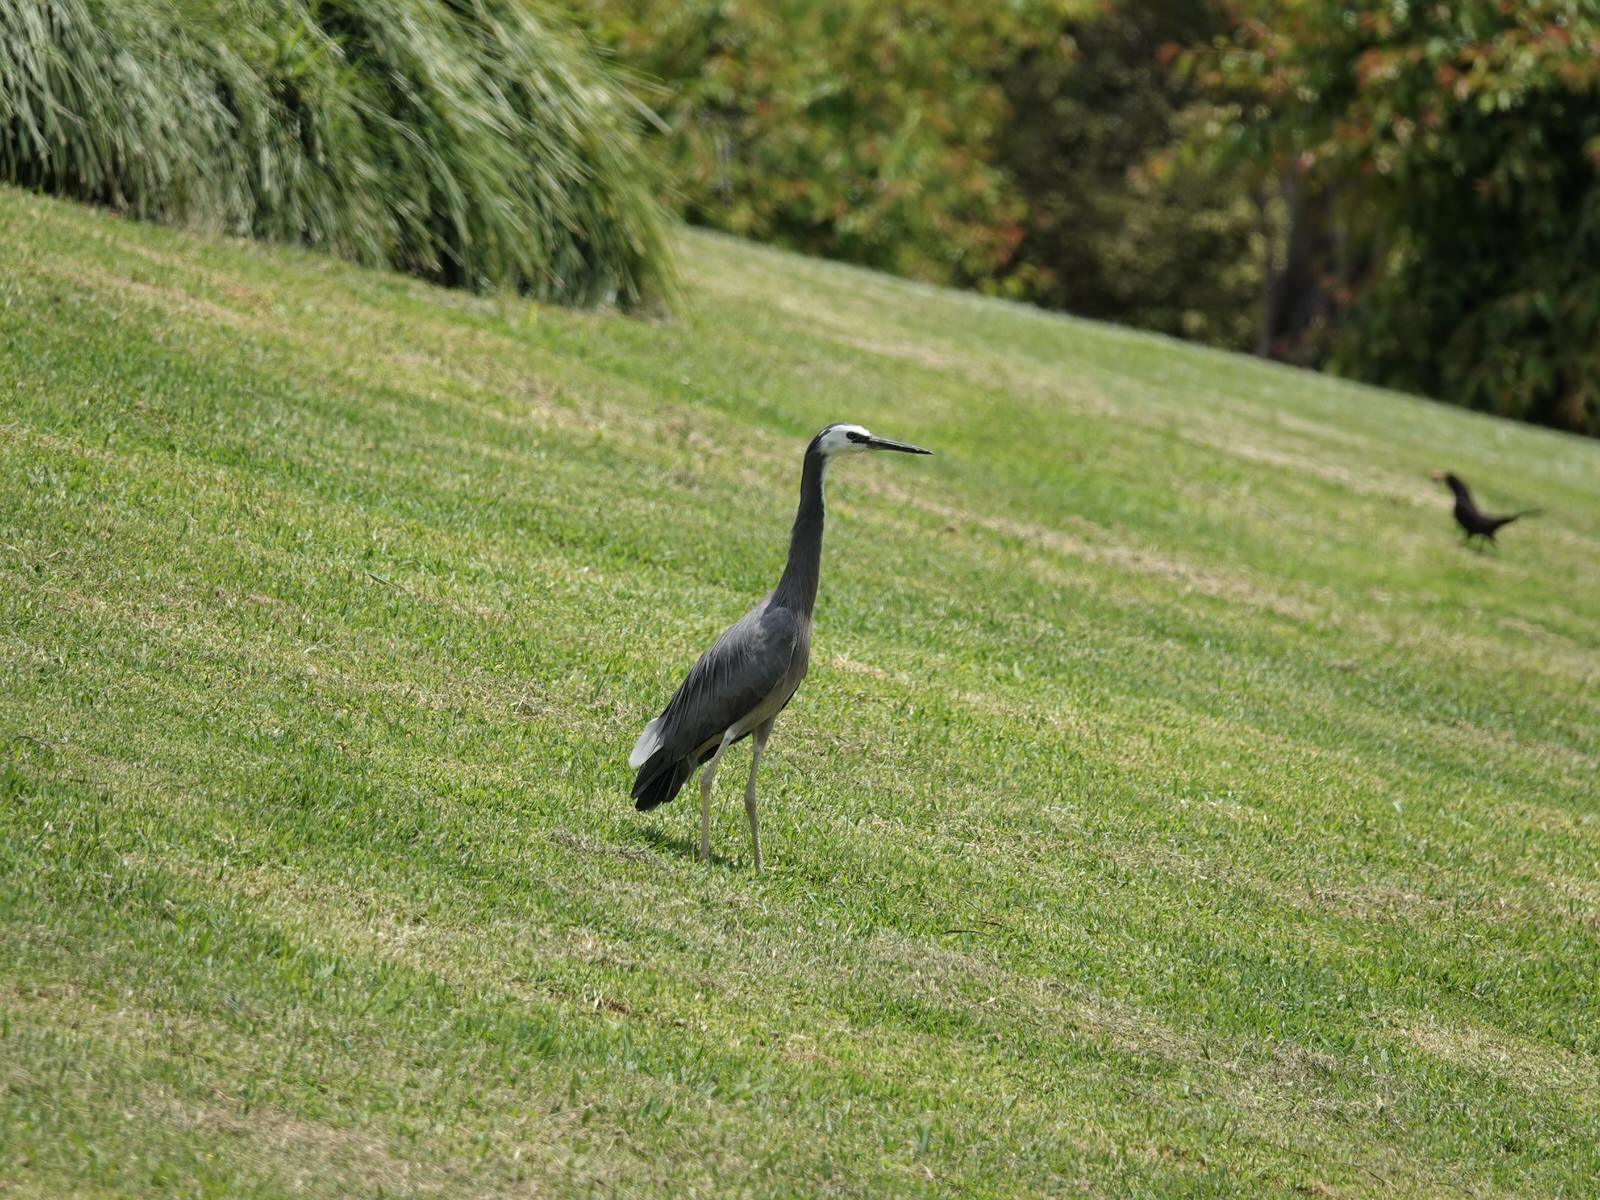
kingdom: Animalia
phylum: Chordata
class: Aves
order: Pelecaniformes
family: Ardeidae
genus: Egretta
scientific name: Egretta novaehollandiae
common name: White-faced heron
